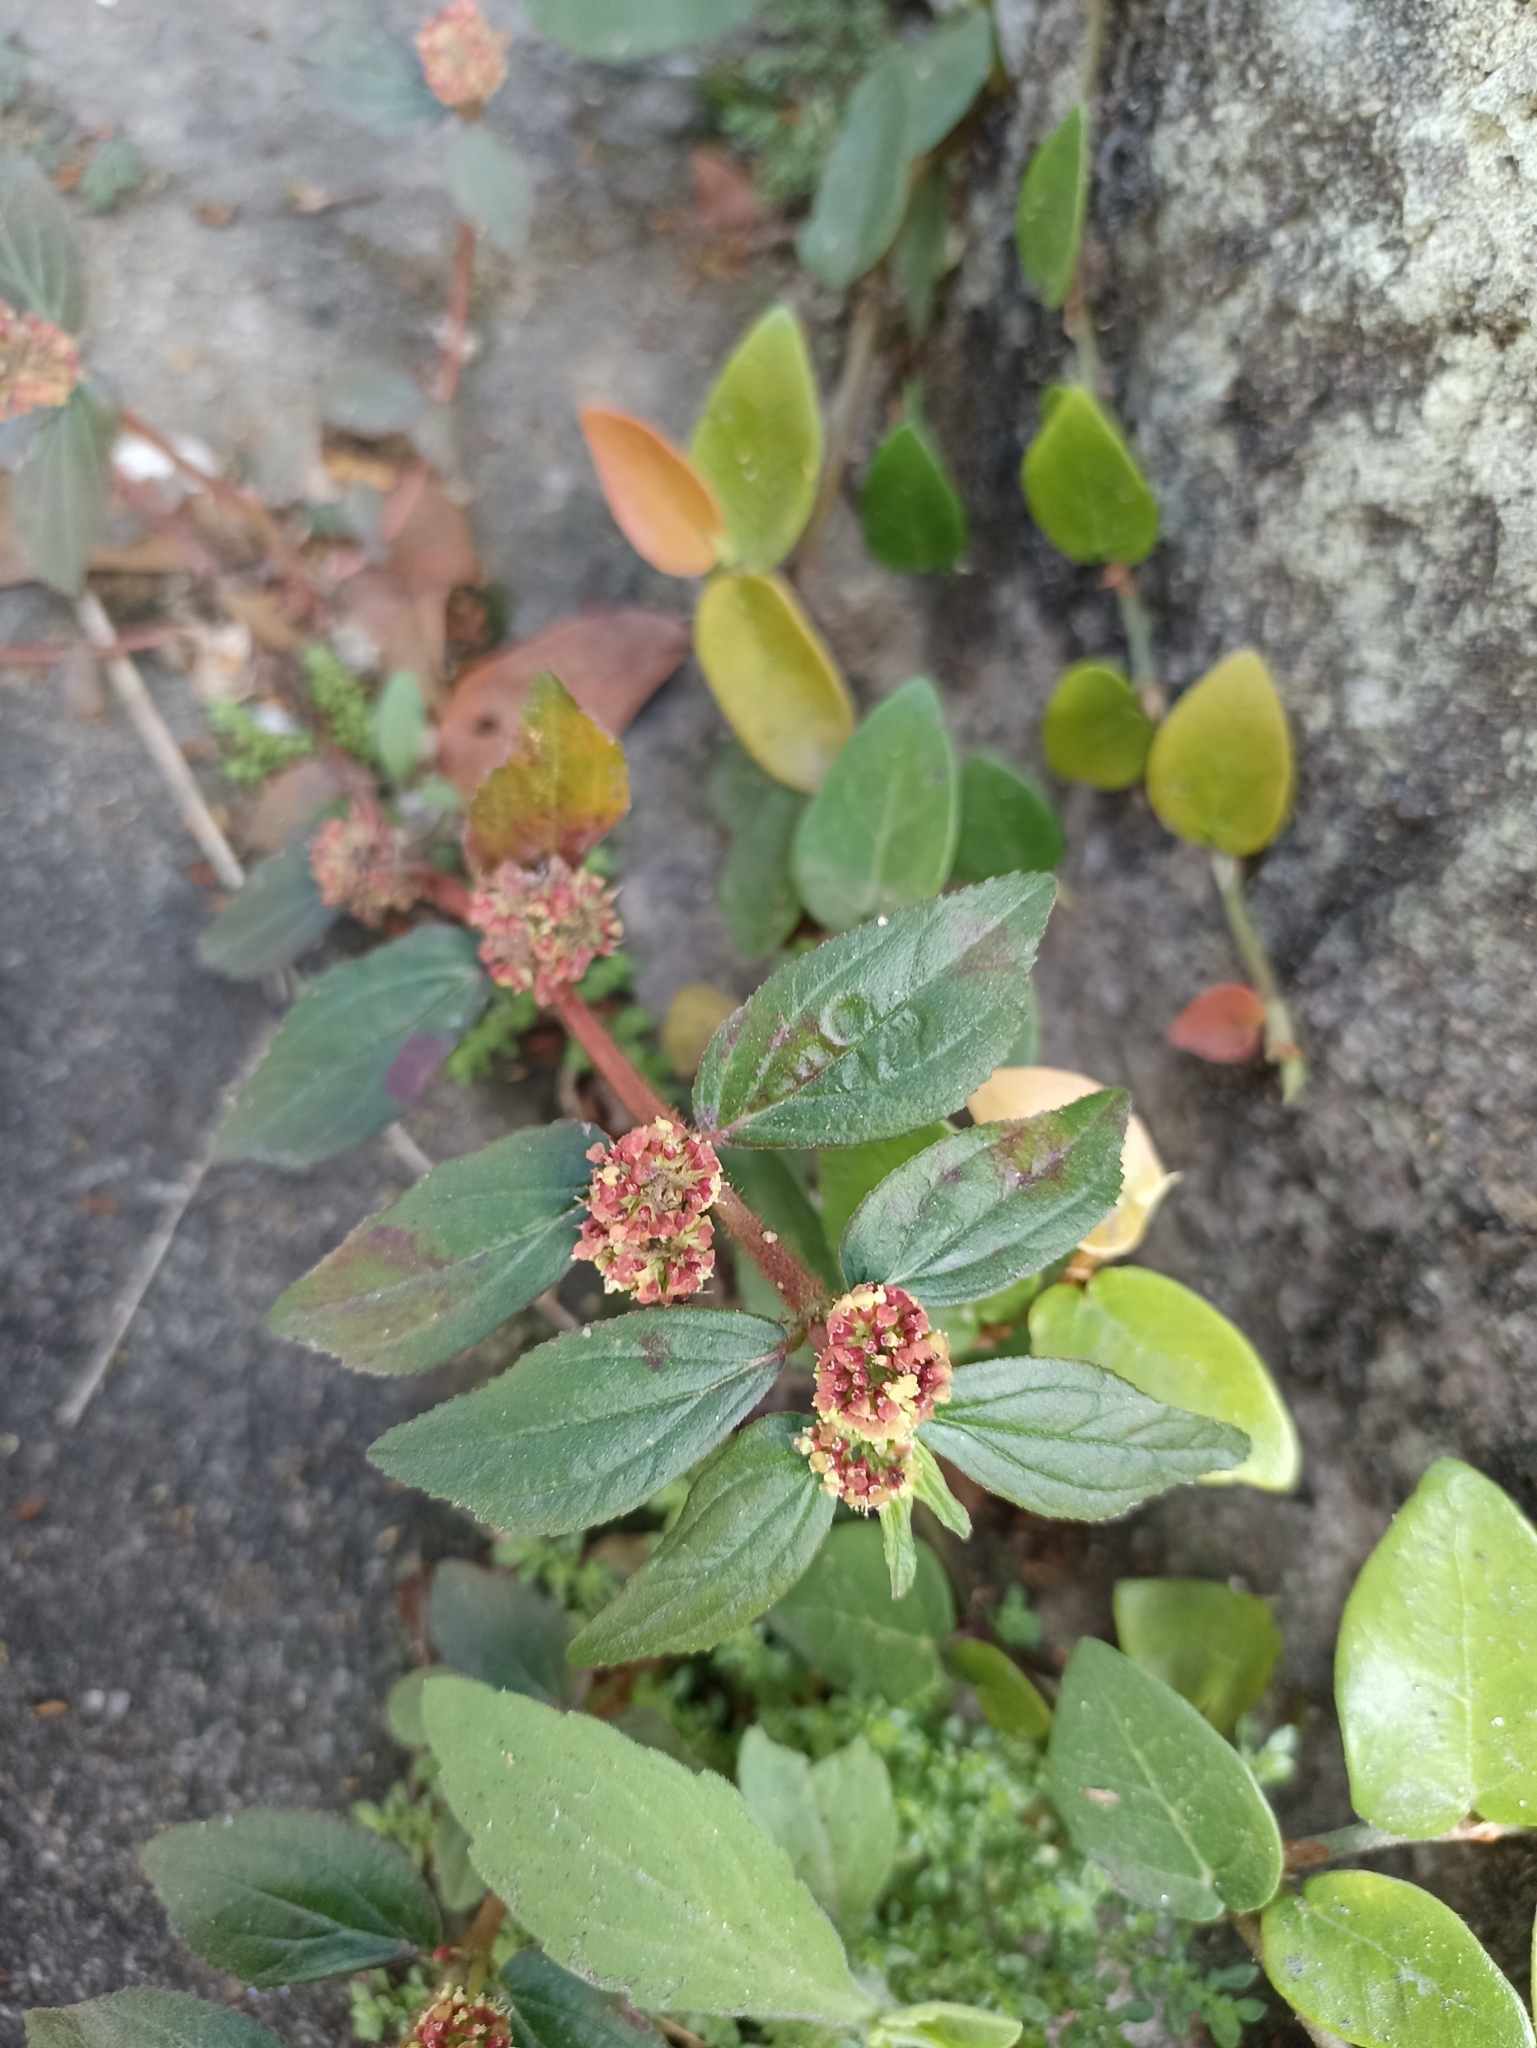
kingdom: Plantae
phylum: Tracheophyta
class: Magnoliopsida
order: Malpighiales
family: Euphorbiaceae
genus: Euphorbia
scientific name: Euphorbia hirta
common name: Pillpod sandmat
